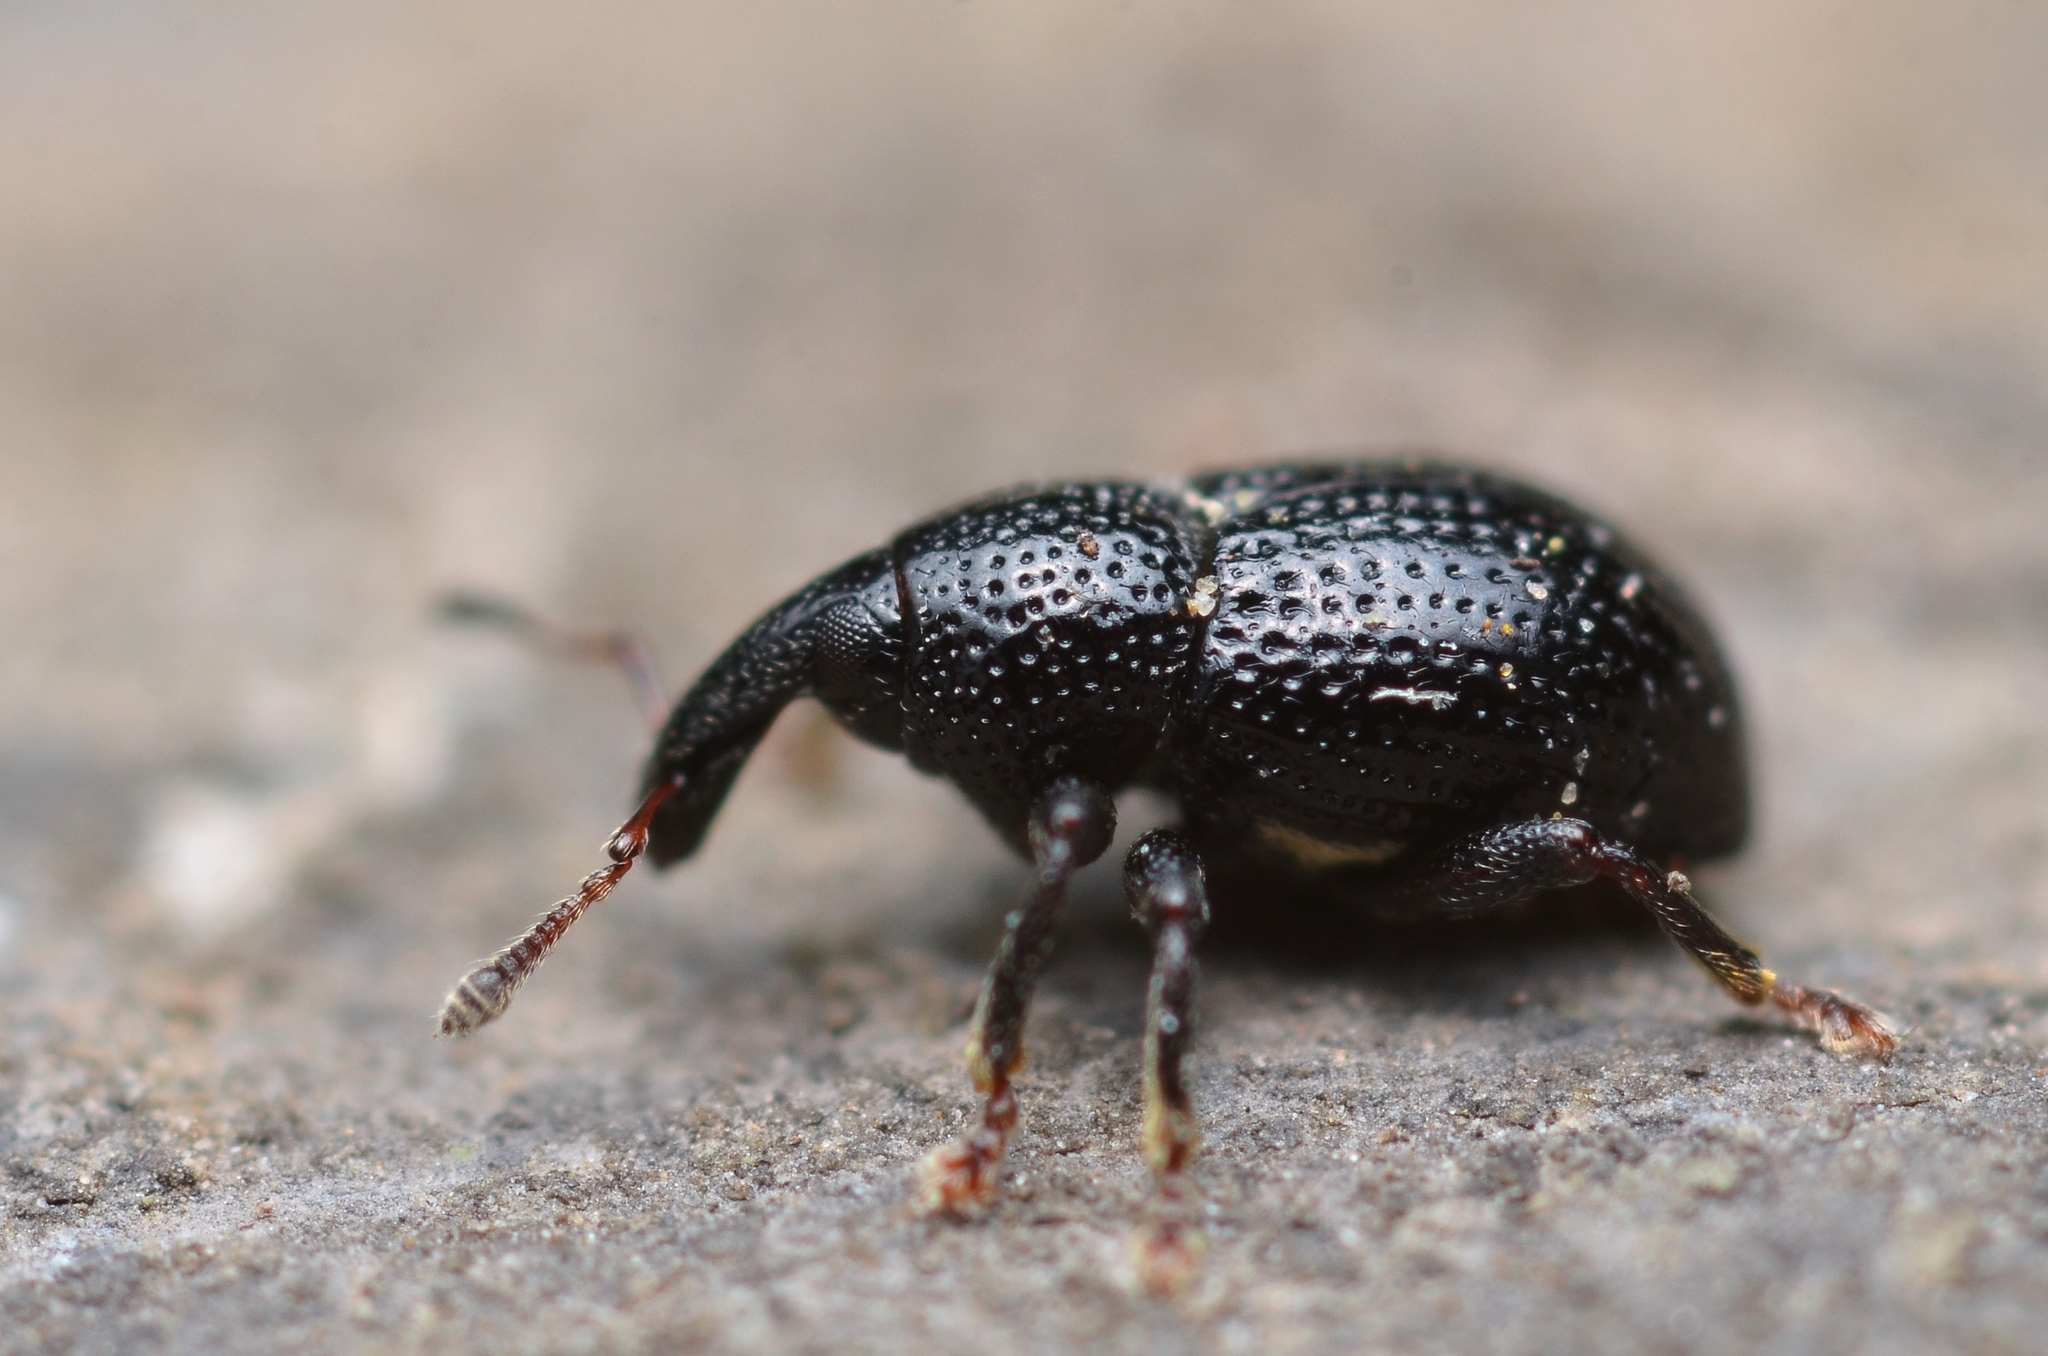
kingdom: Animalia
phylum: Arthropoda
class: Insecta
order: Coleoptera
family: Curculionidae
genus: Leiosoma
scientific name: Leiosoma deflexum
